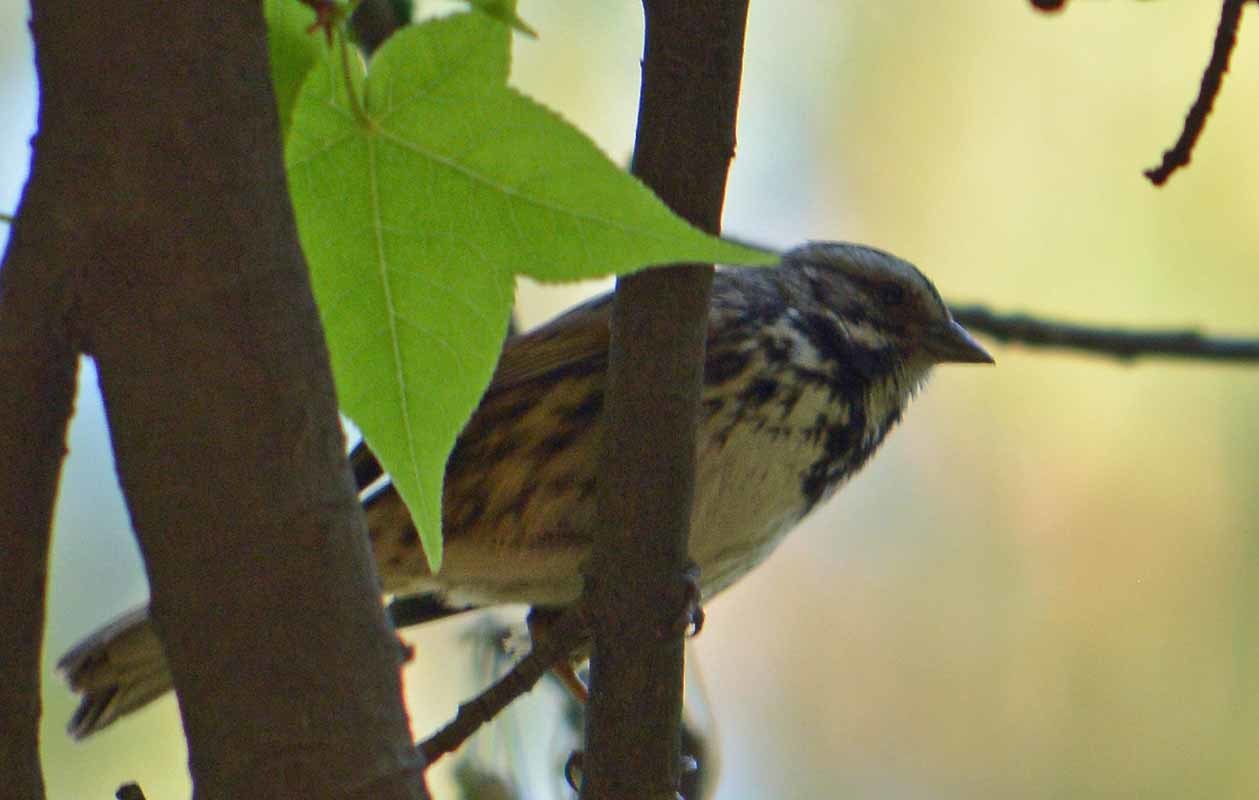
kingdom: Animalia
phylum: Chordata
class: Aves
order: Passeriformes
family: Passerellidae
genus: Melospiza
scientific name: Melospiza melodia
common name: Song sparrow
